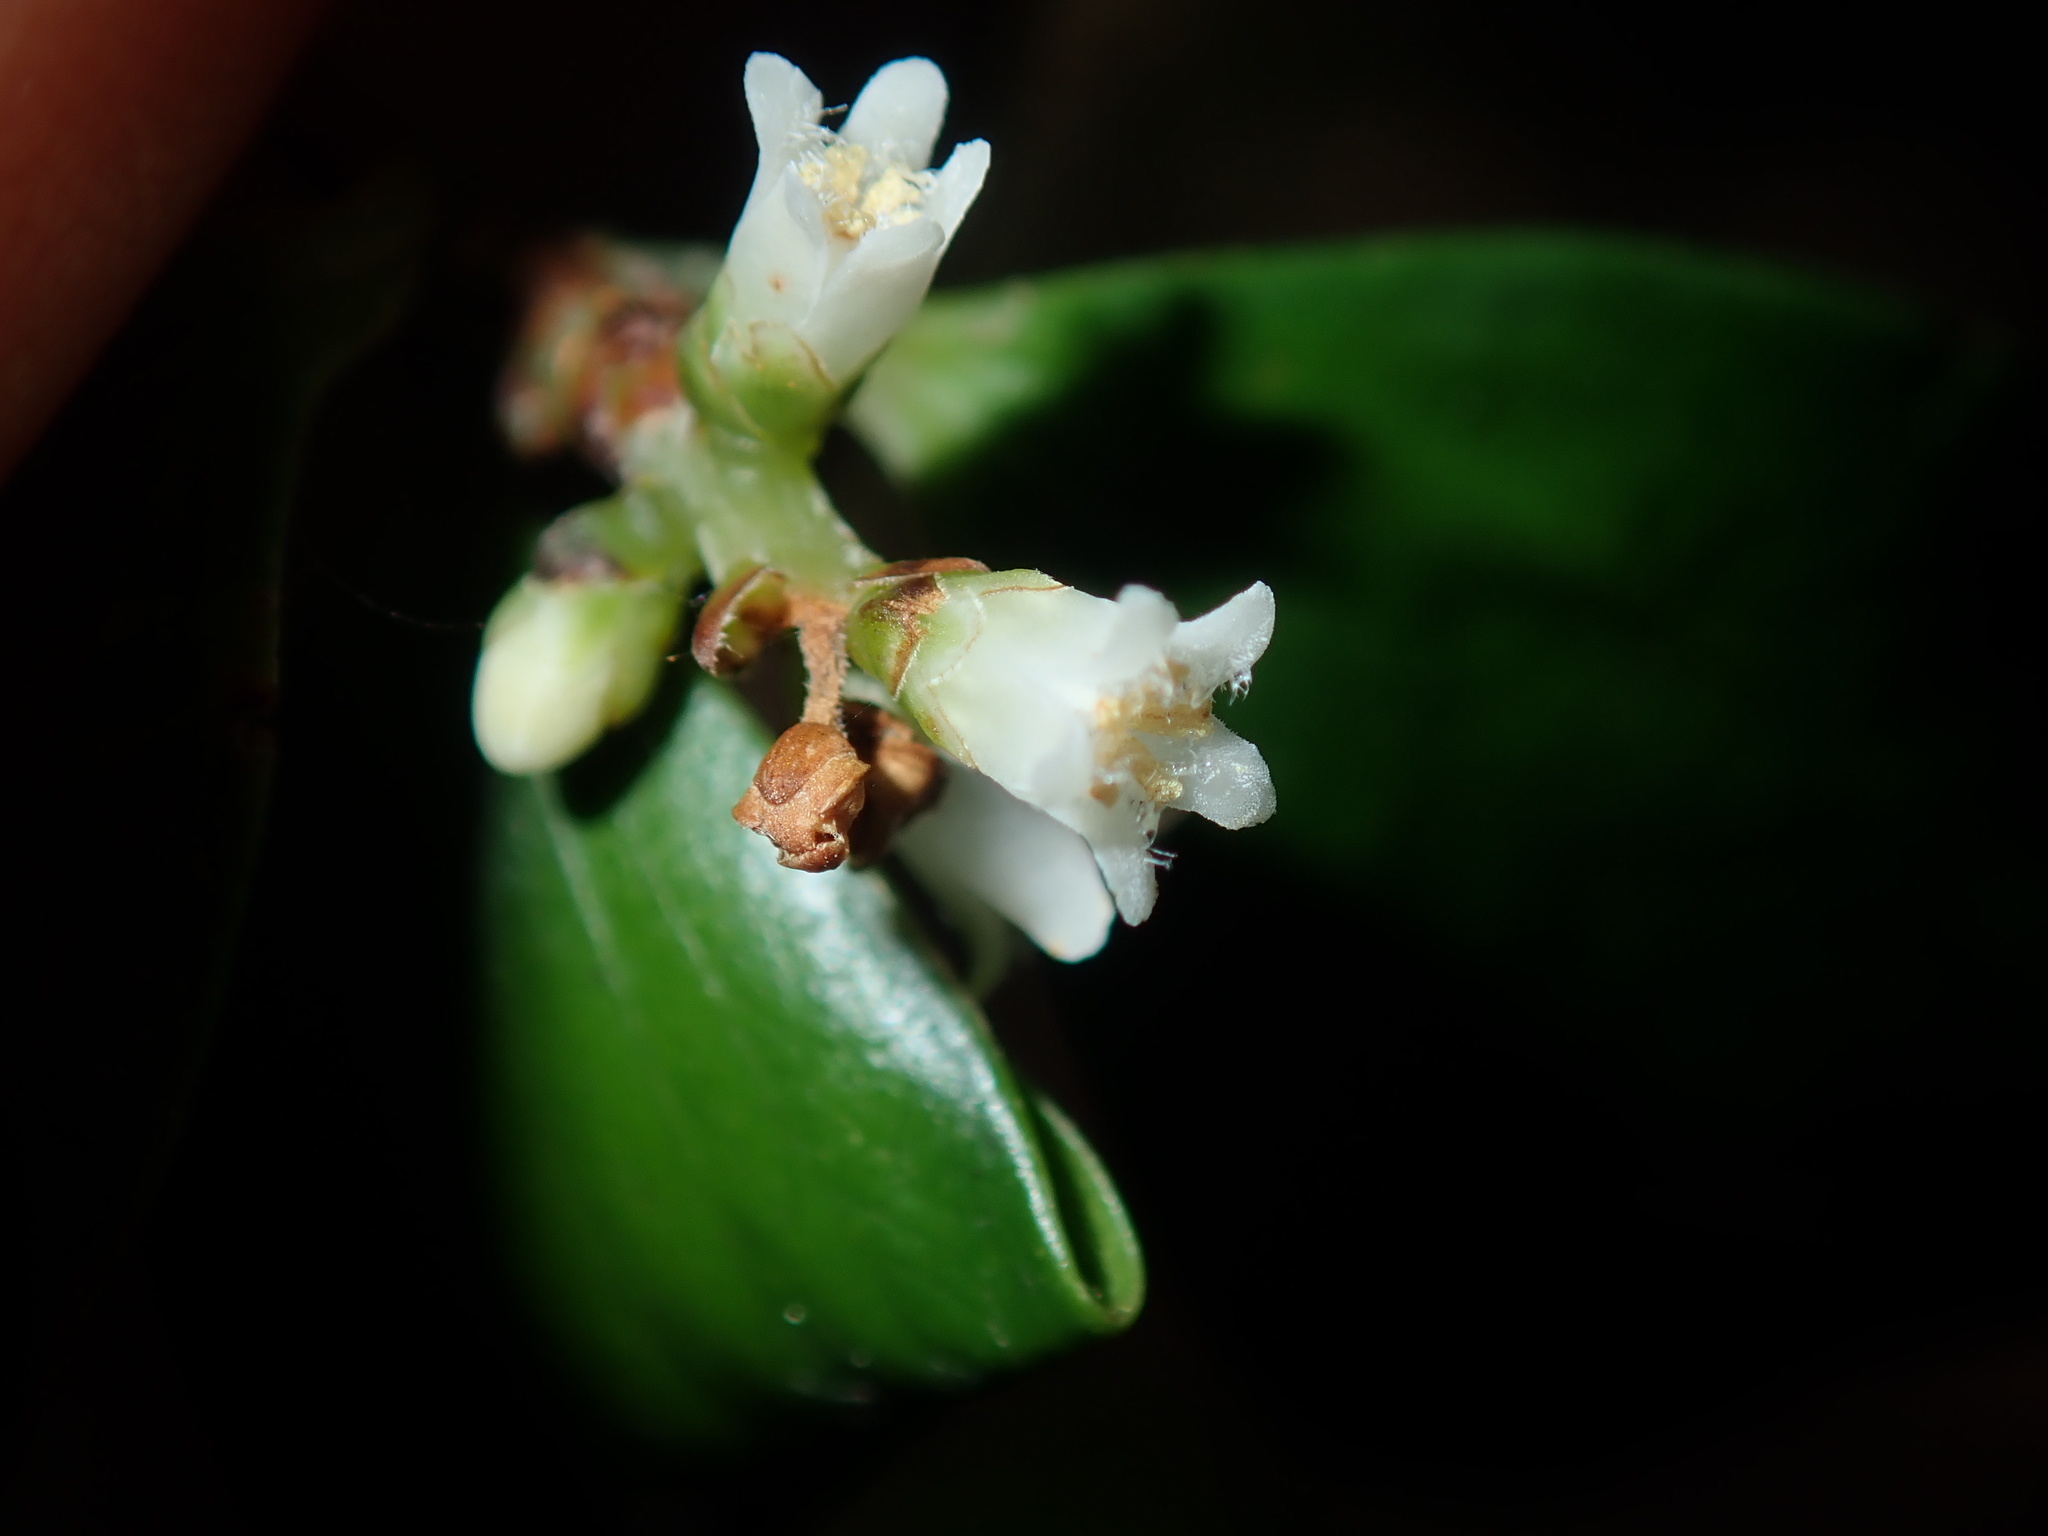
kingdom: Plantae
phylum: Tracheophyta
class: Magnoliopsida
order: Ericales
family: Ericaceae
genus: Trochocarpa
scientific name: Trochocarpa laurina
